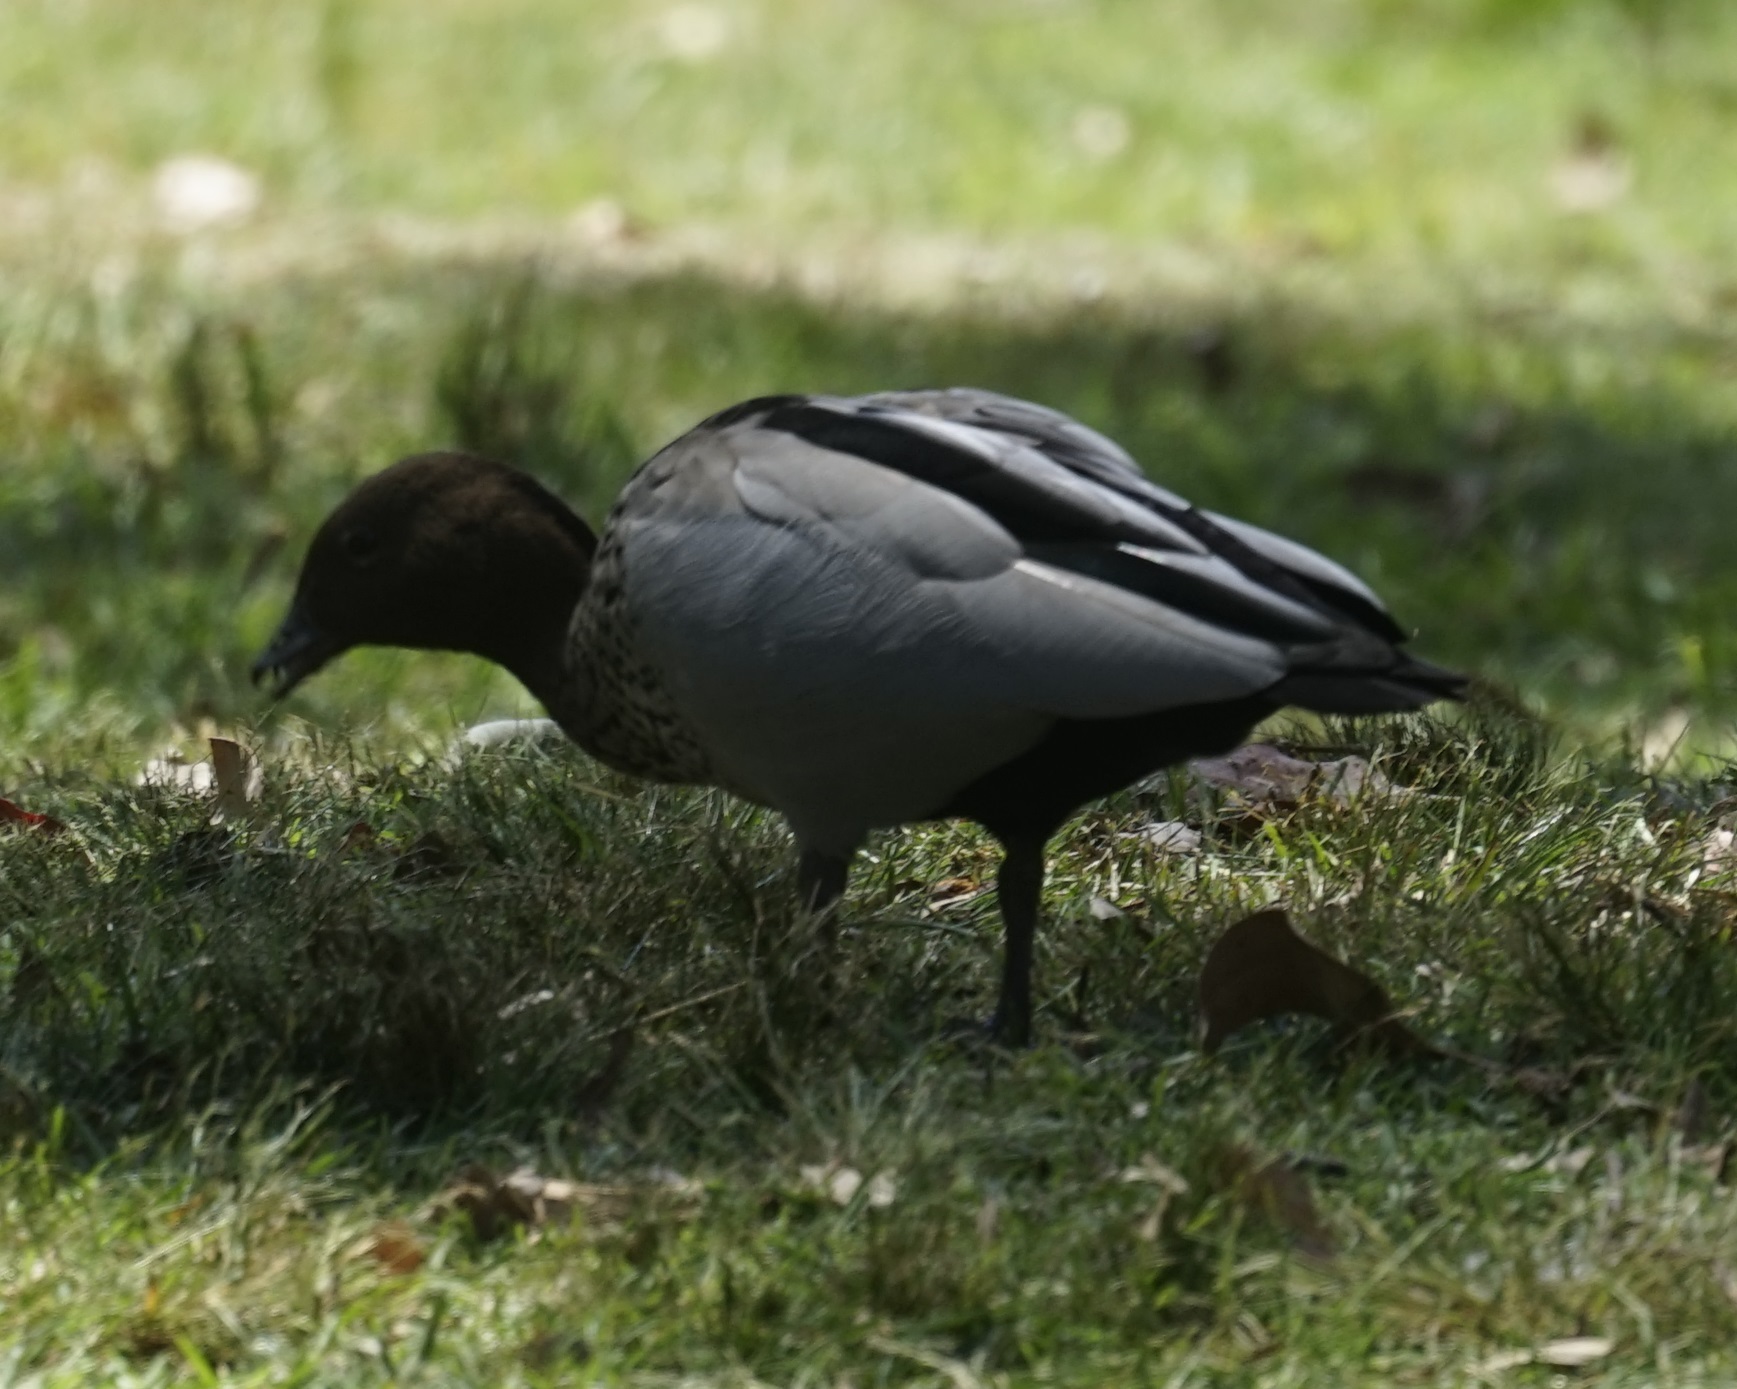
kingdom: Animalia
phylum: Chordata
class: Aves
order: Anseriformes
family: Anatidae
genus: Chenonetta
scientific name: Chenonetta jubata
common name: Maned duck
